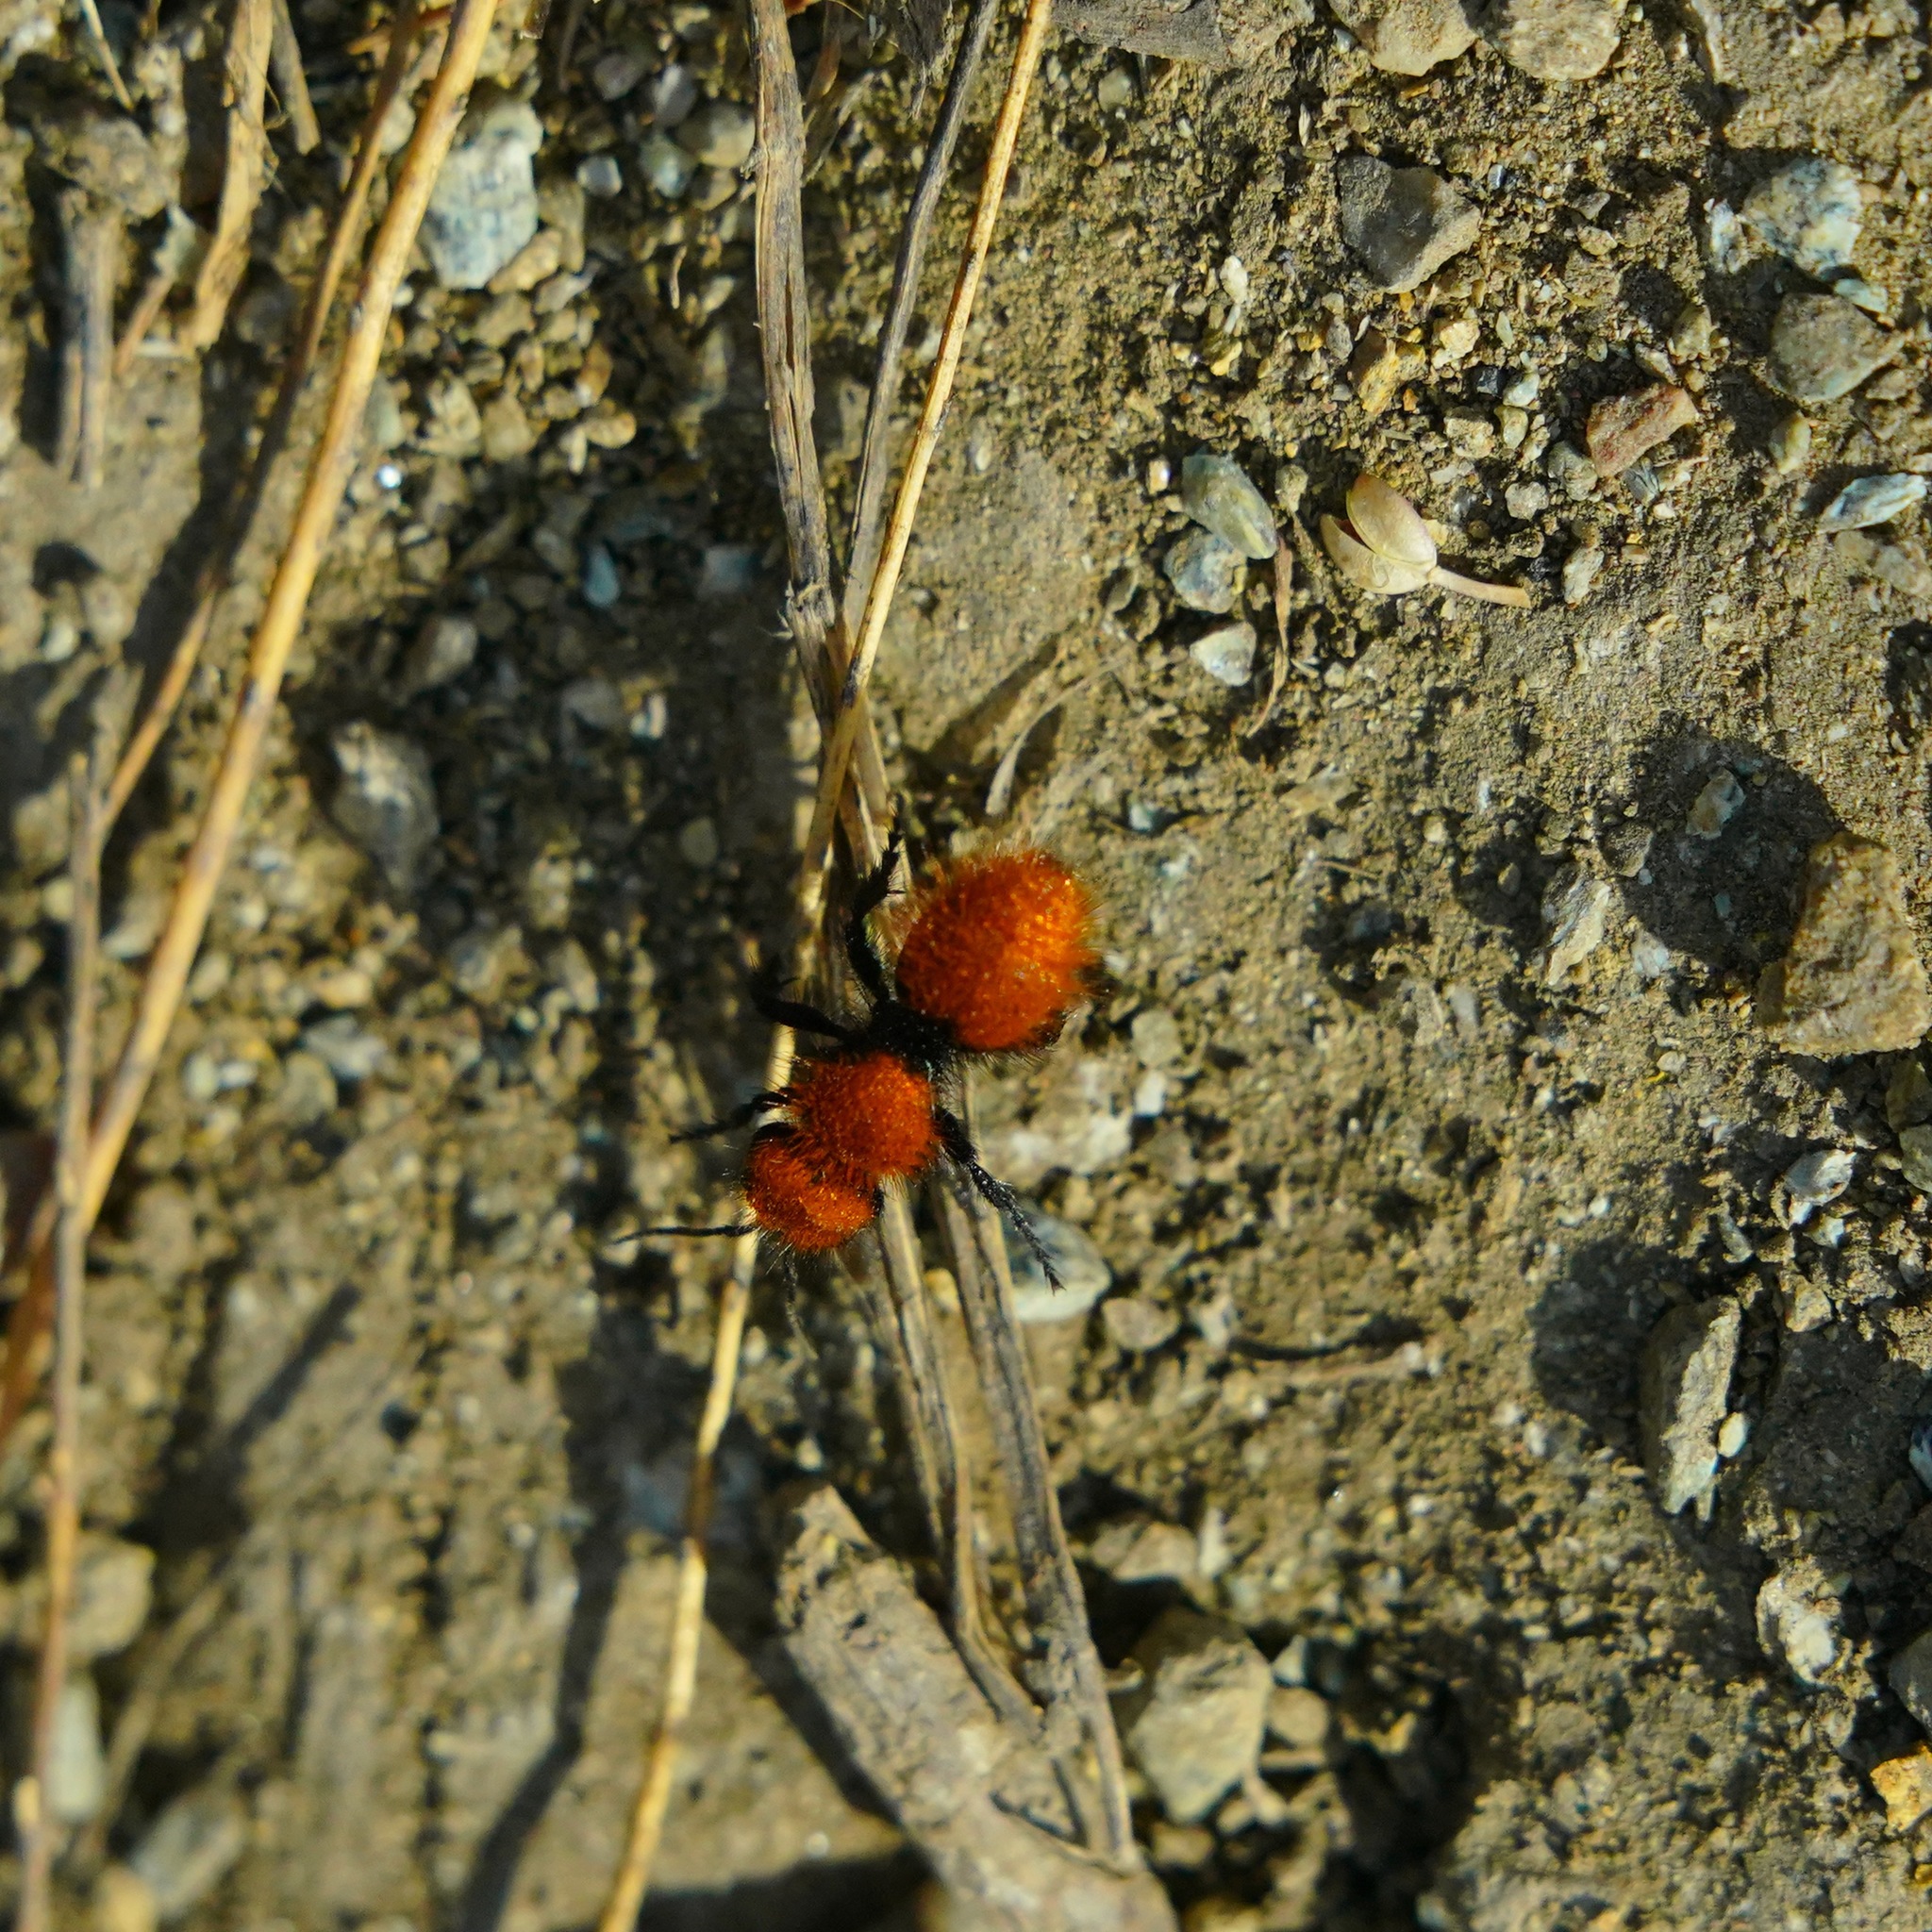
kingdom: Animalia
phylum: Arthropoda
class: Insecta
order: Hymenoptera
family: Mutillidae
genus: Dasymutilla
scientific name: Dasymutilla
